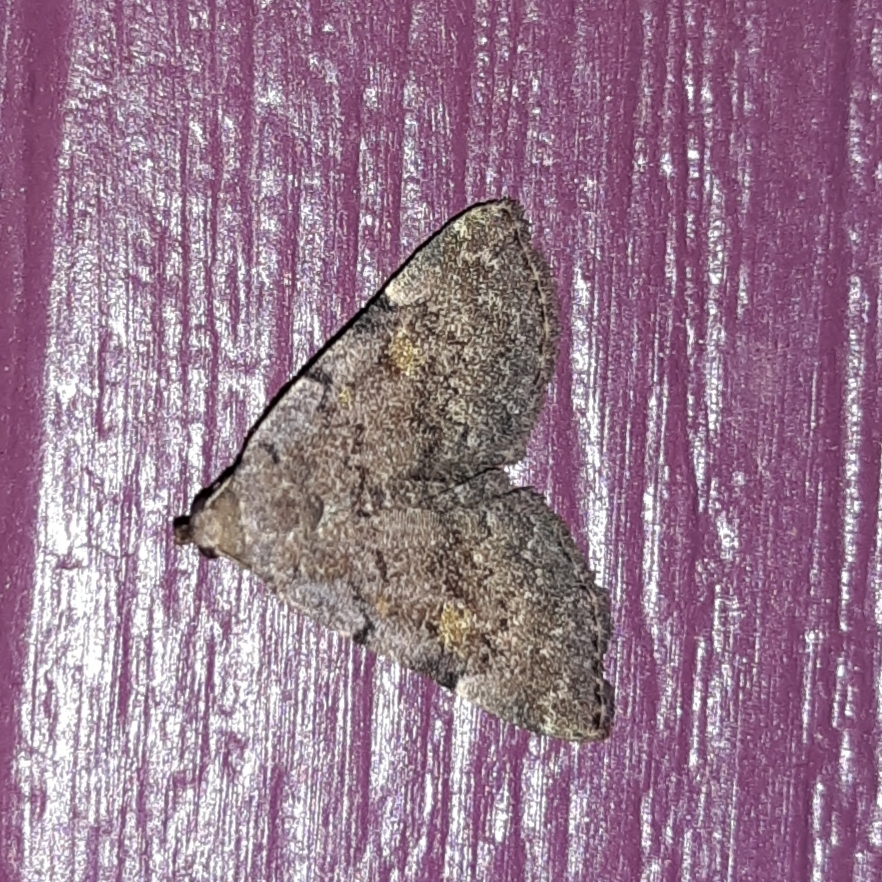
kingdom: Animalia
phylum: Arthropoda
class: Insecta
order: Lepidoptera
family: Erebidae
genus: Idia
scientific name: Idia aemula
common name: Common idia moth
